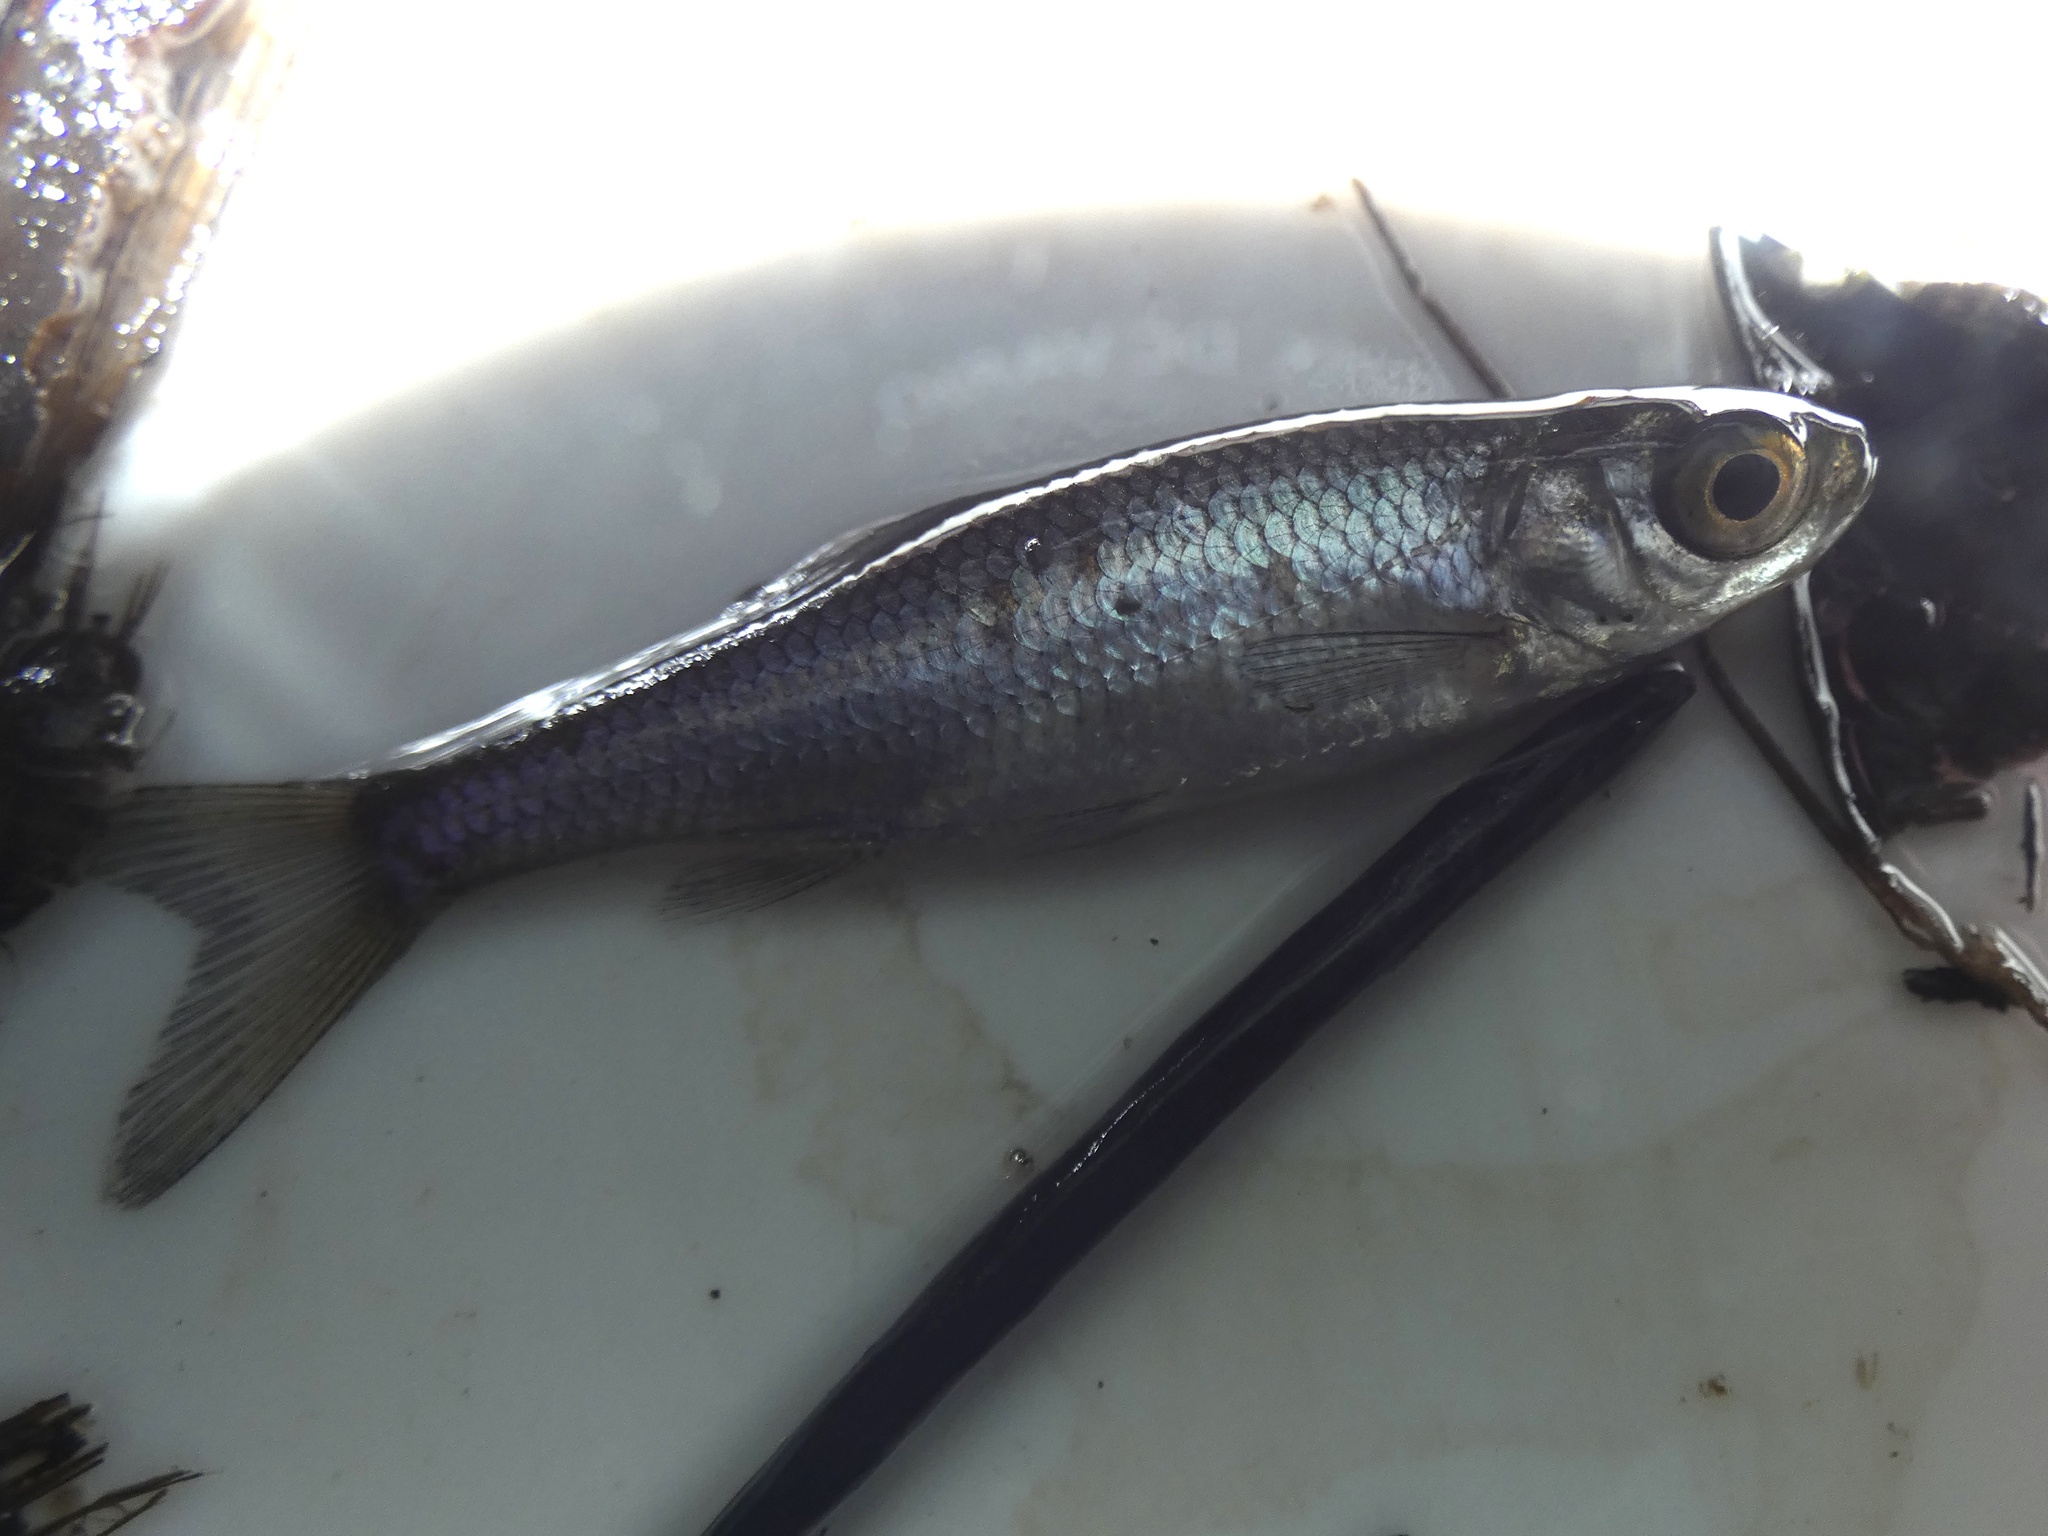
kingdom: Animalia
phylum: Chordata
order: Cypriniformes
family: Cyprinidae
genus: Rutilus
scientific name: Rutilus rutilus
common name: Roach
